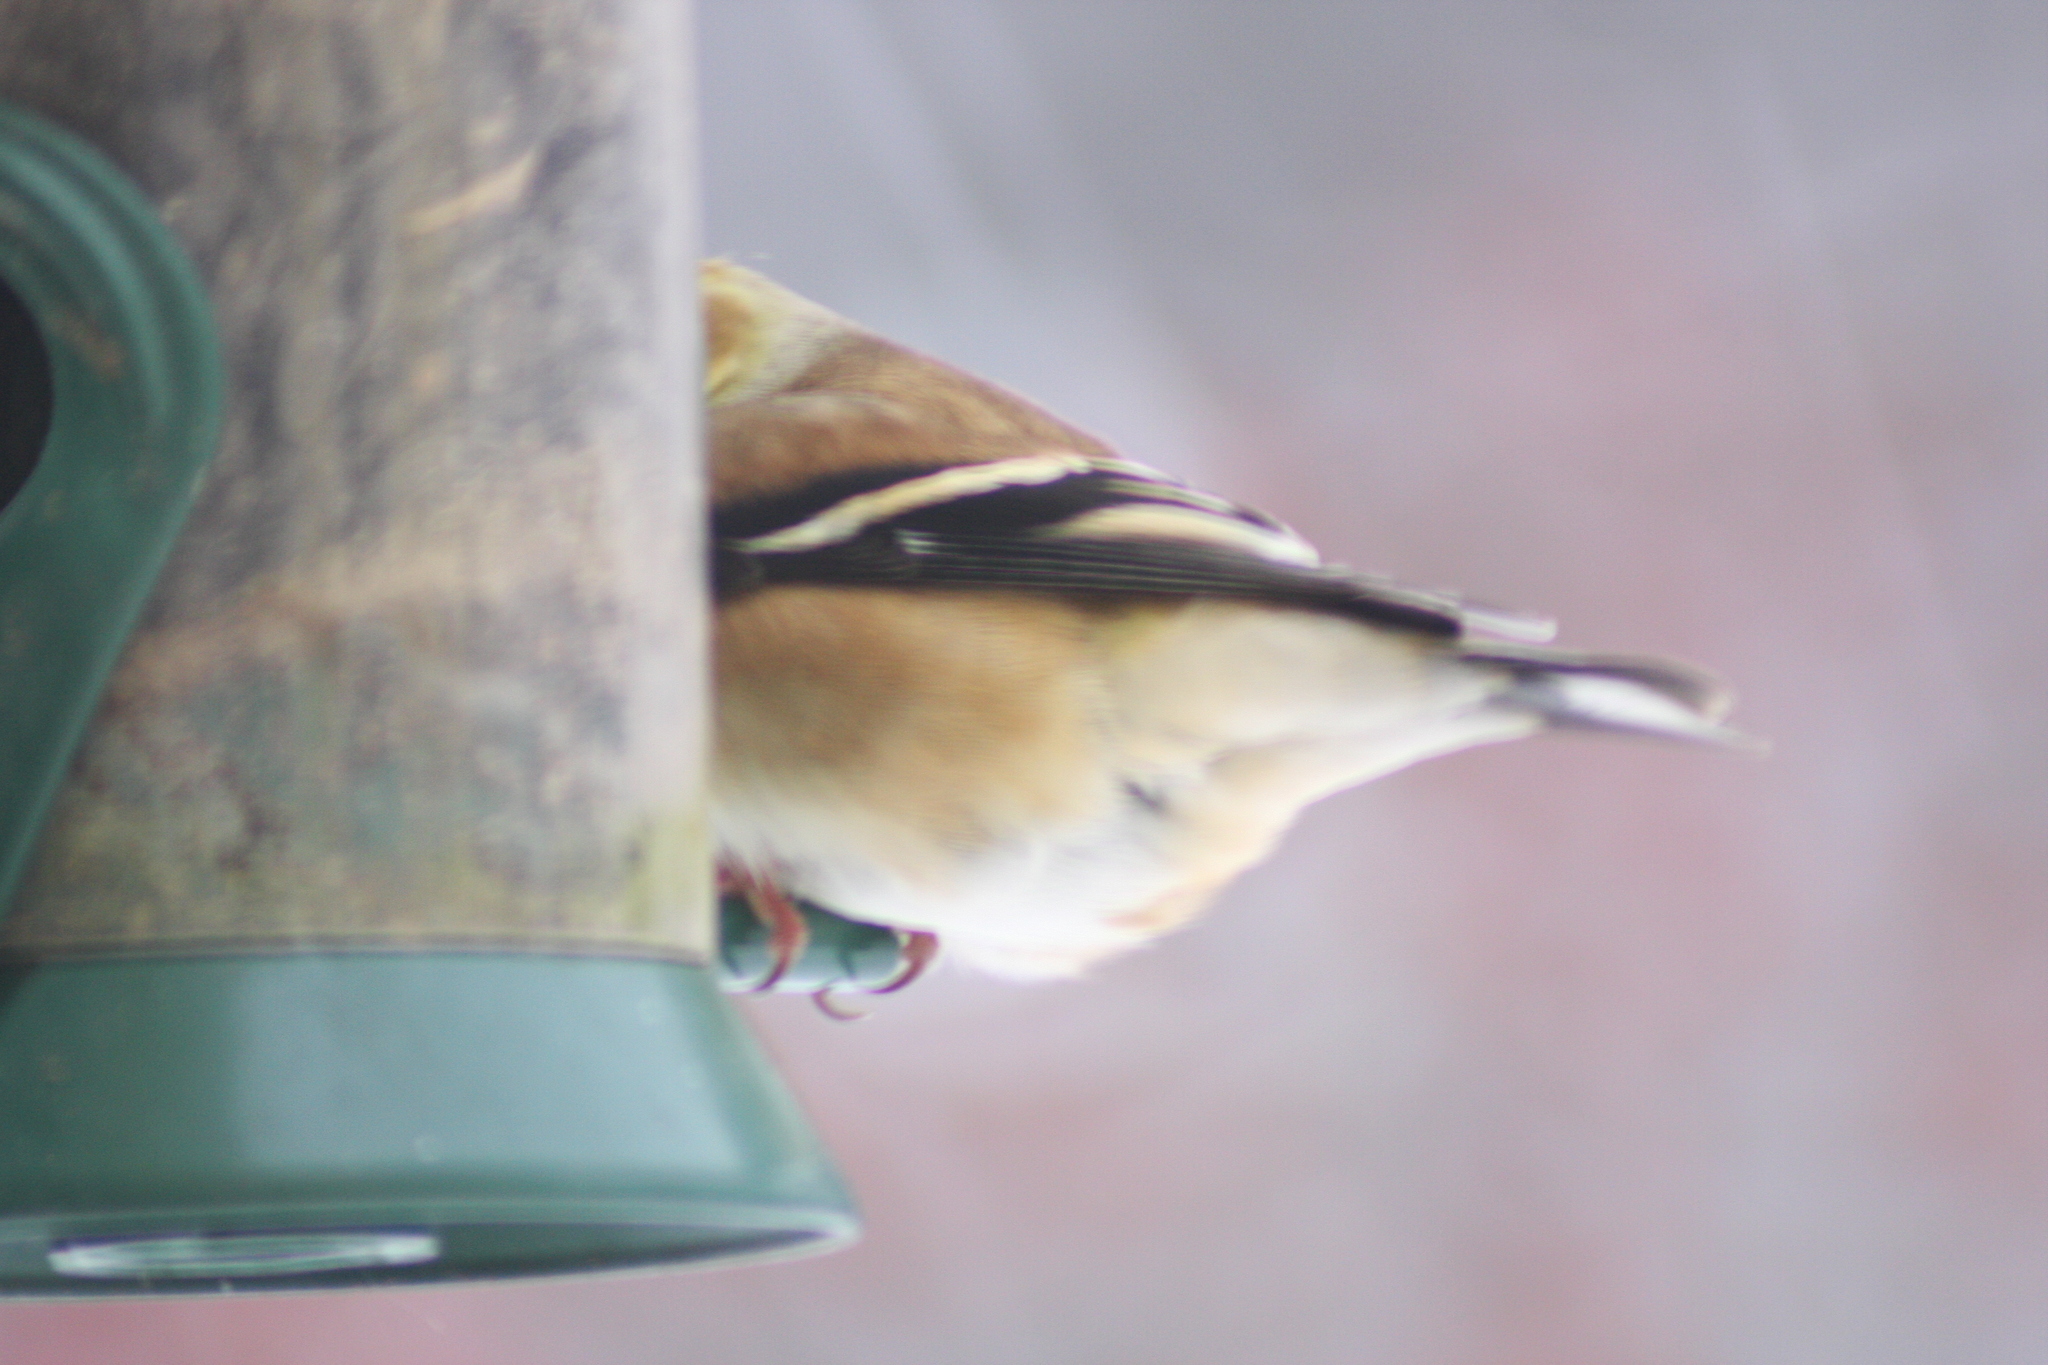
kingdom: Animalia
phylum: Chordata
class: Aves
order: Passeriformes
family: Fringillidae
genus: Spinus
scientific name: Spinus tristis
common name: American goldfinch
